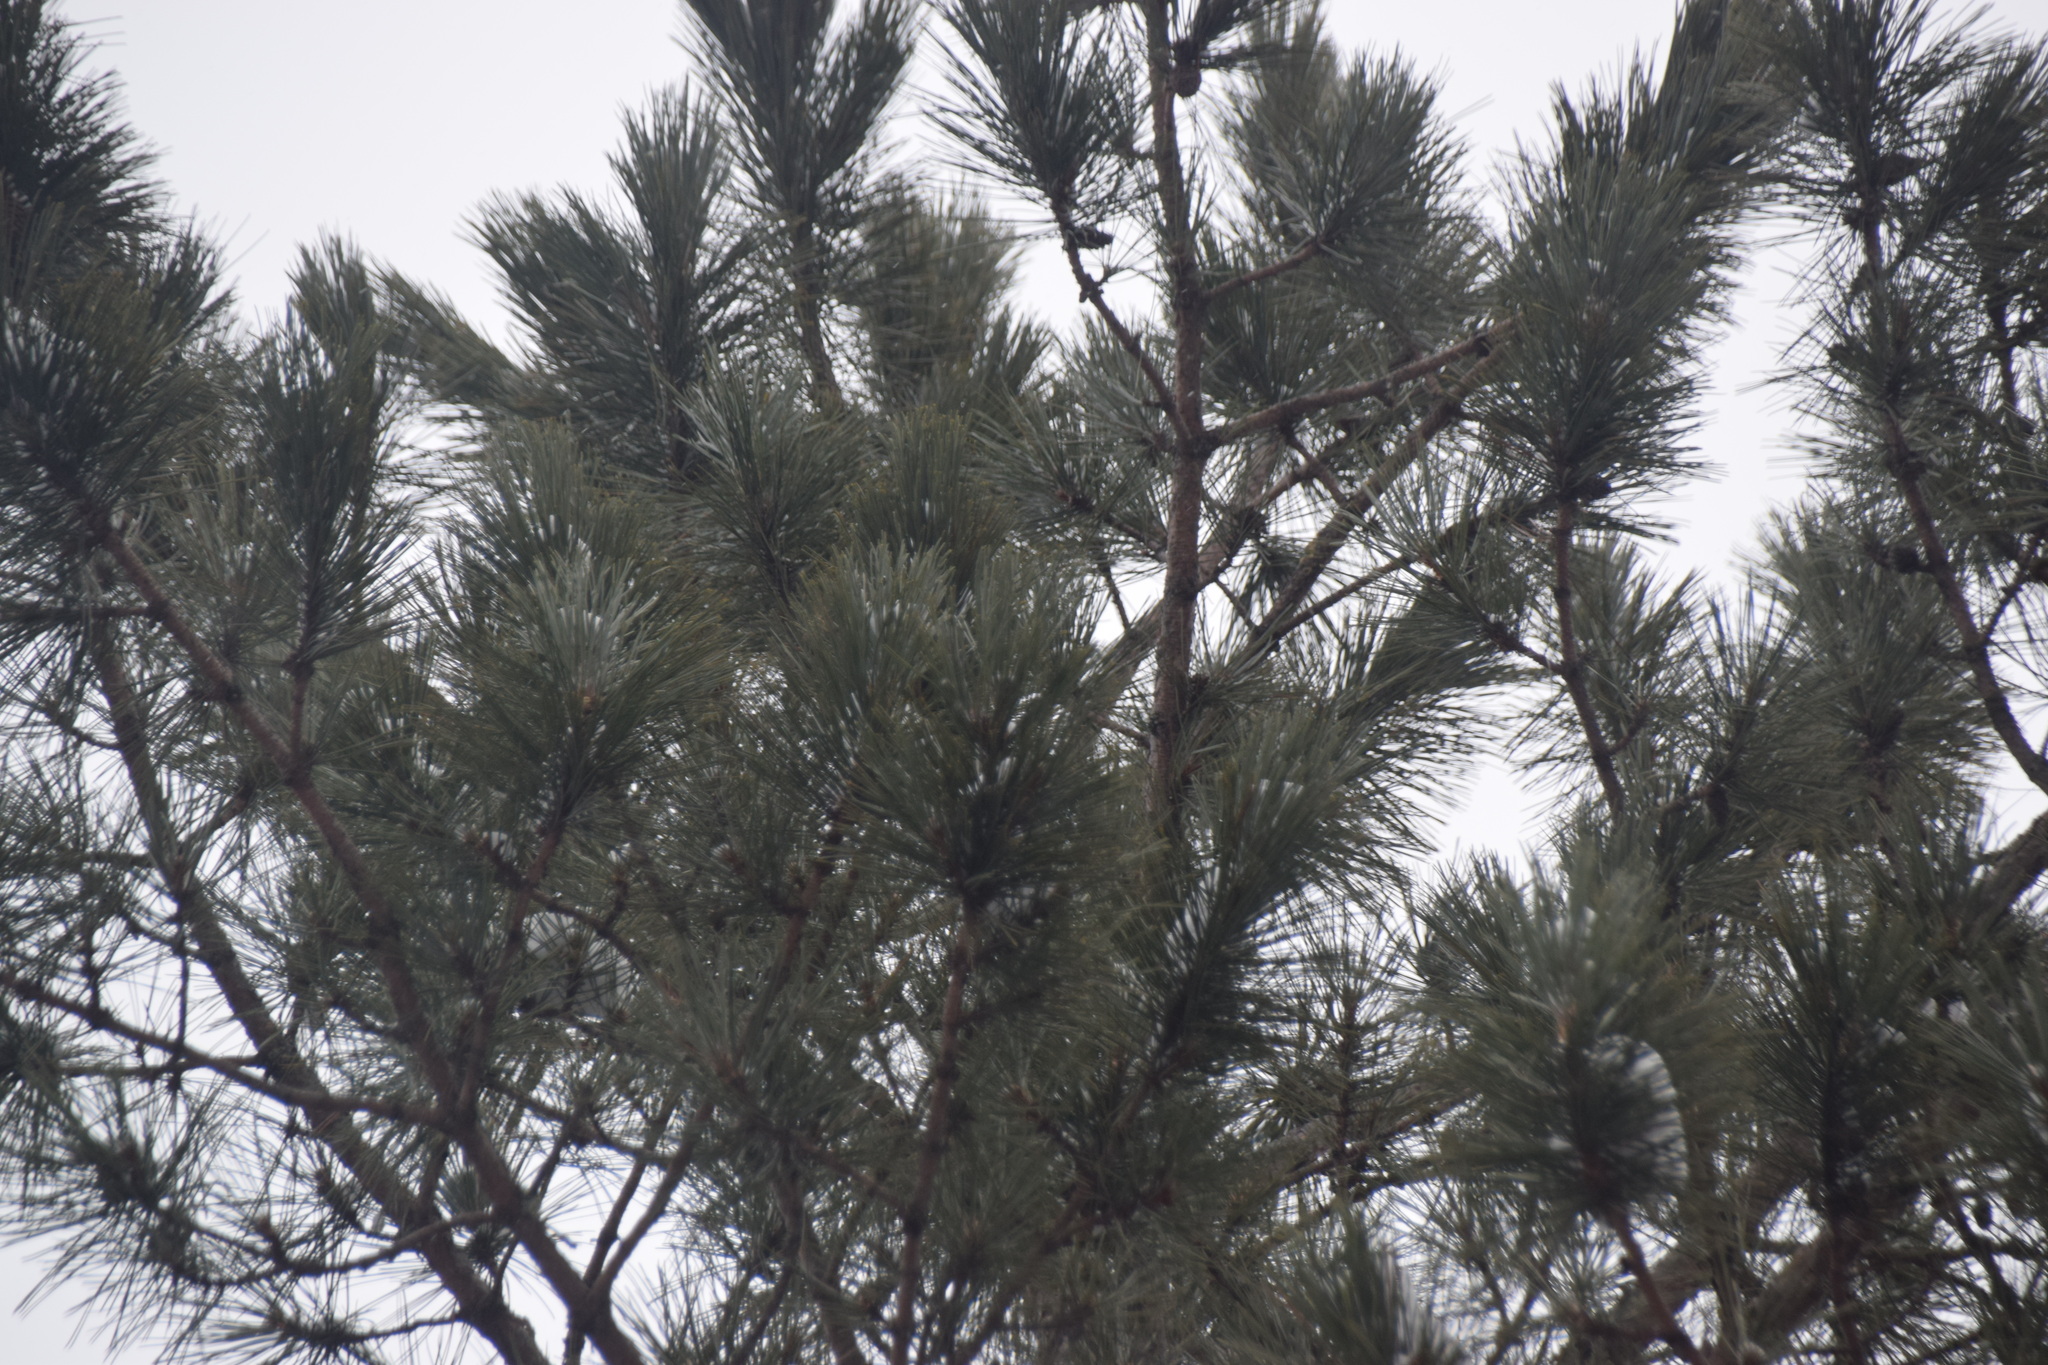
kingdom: Plantae
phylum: Tracheophyta
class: Pinopsida
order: Pinales
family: Pinaceae
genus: Pinus
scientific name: Pinus resinosa
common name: Norway pine
